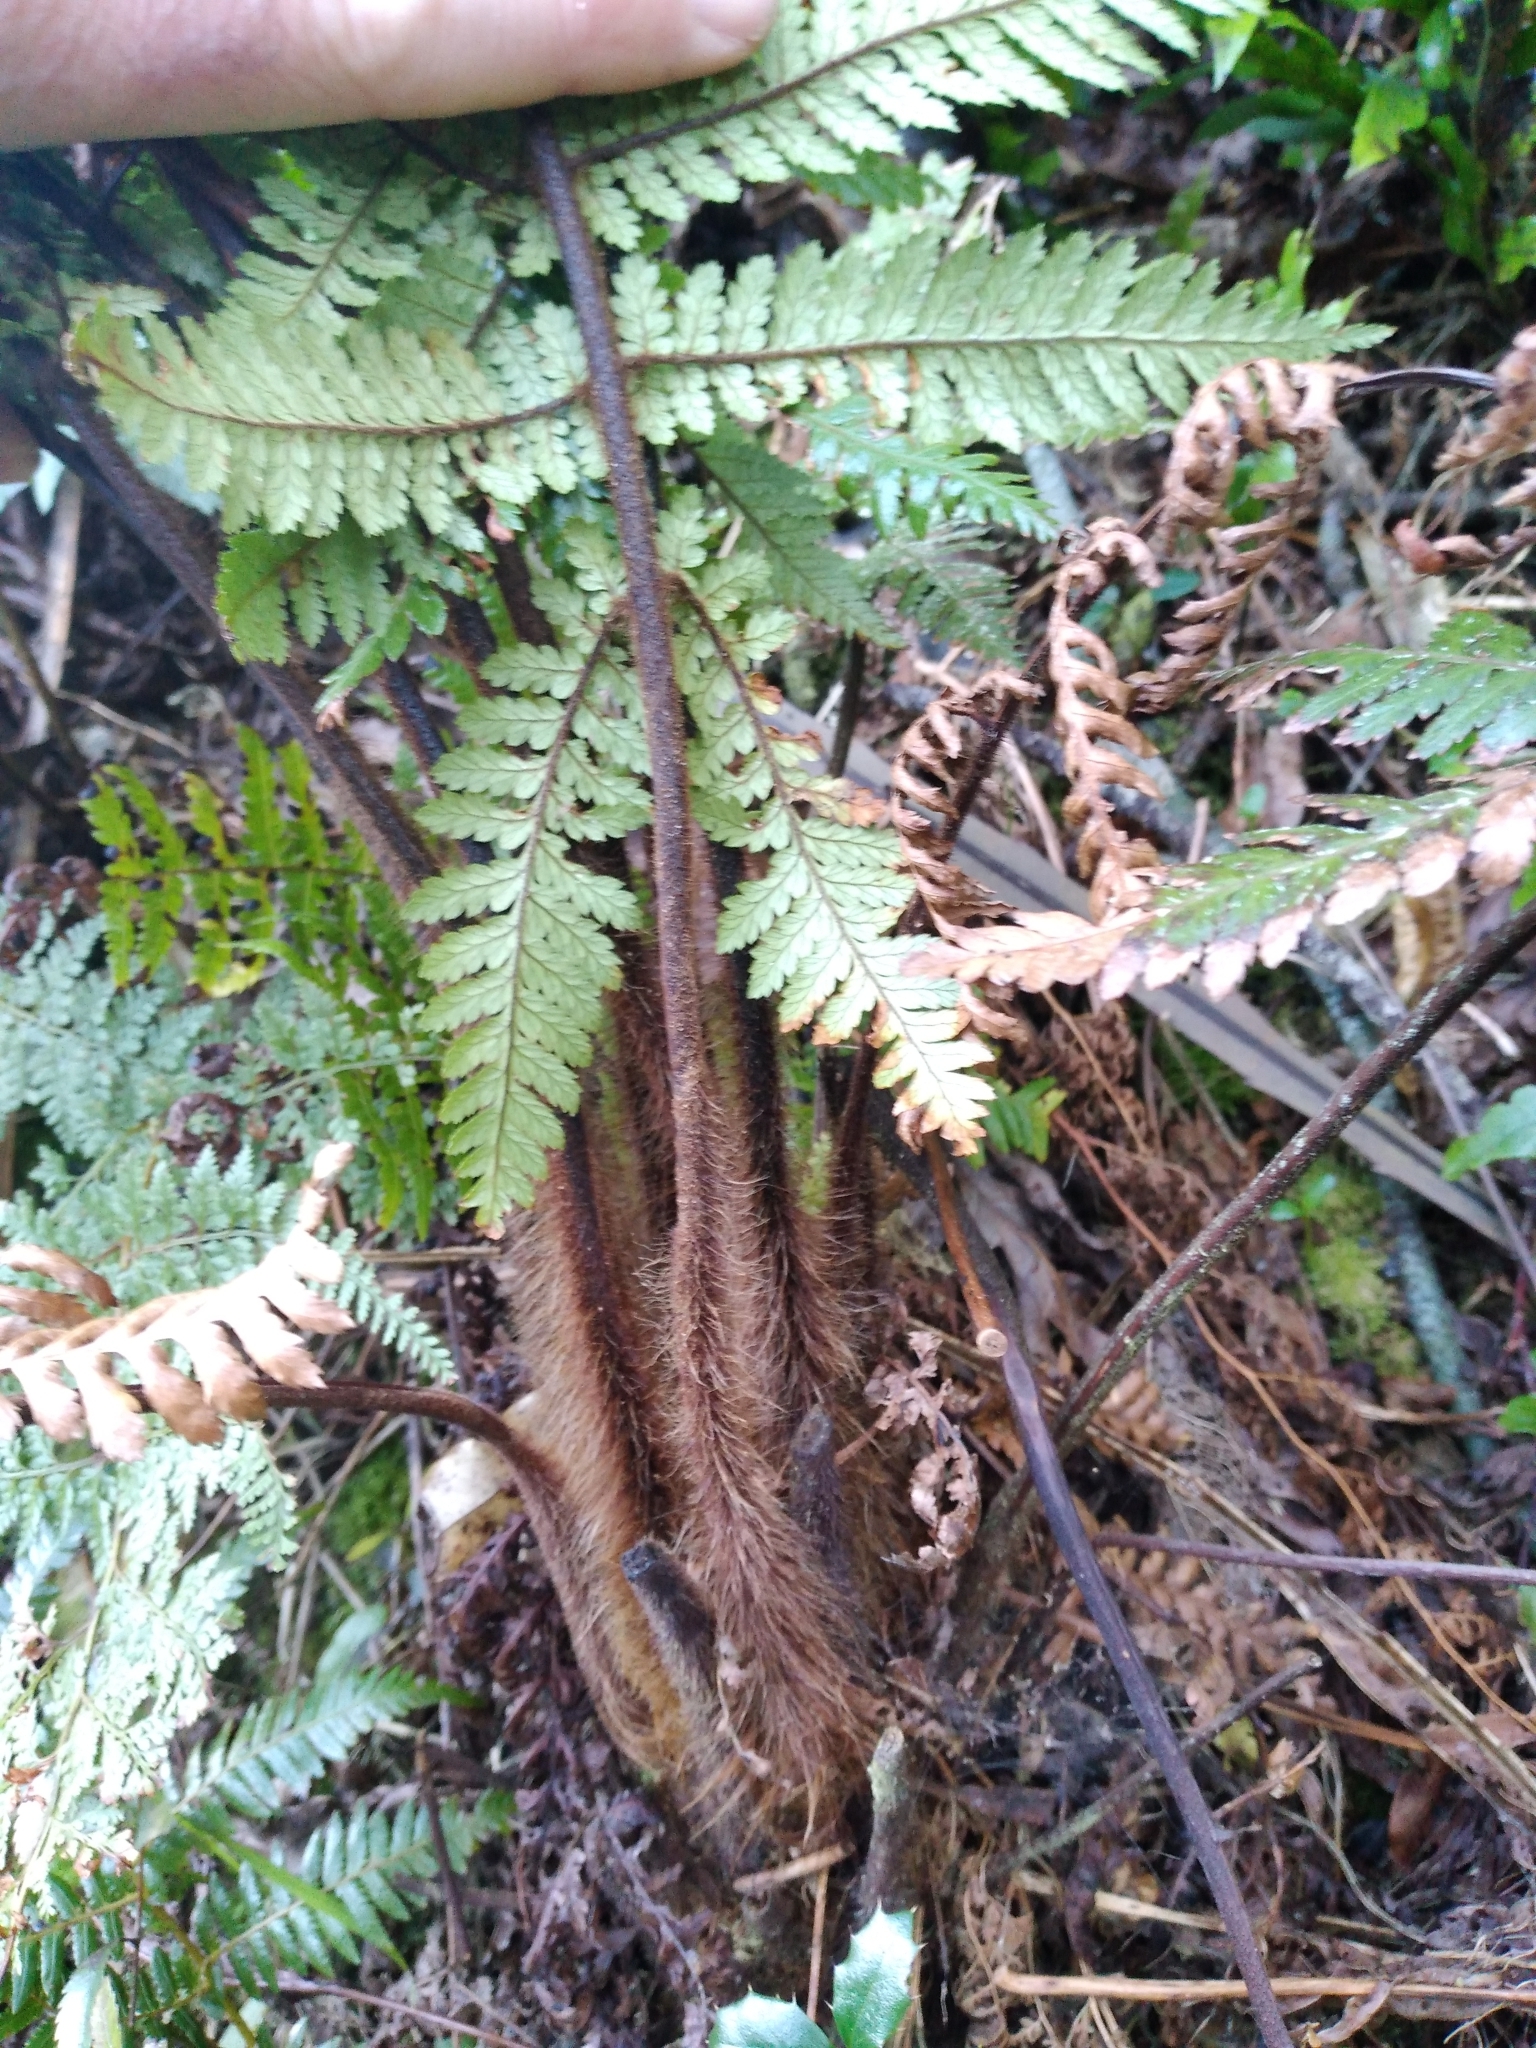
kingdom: Plantae
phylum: Tracheophyta
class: Polypodiopsida
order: Cyatheales
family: Dicksoniaceae
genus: Dicksonia
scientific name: Dicksonia squarrosa
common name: Hard treefern
